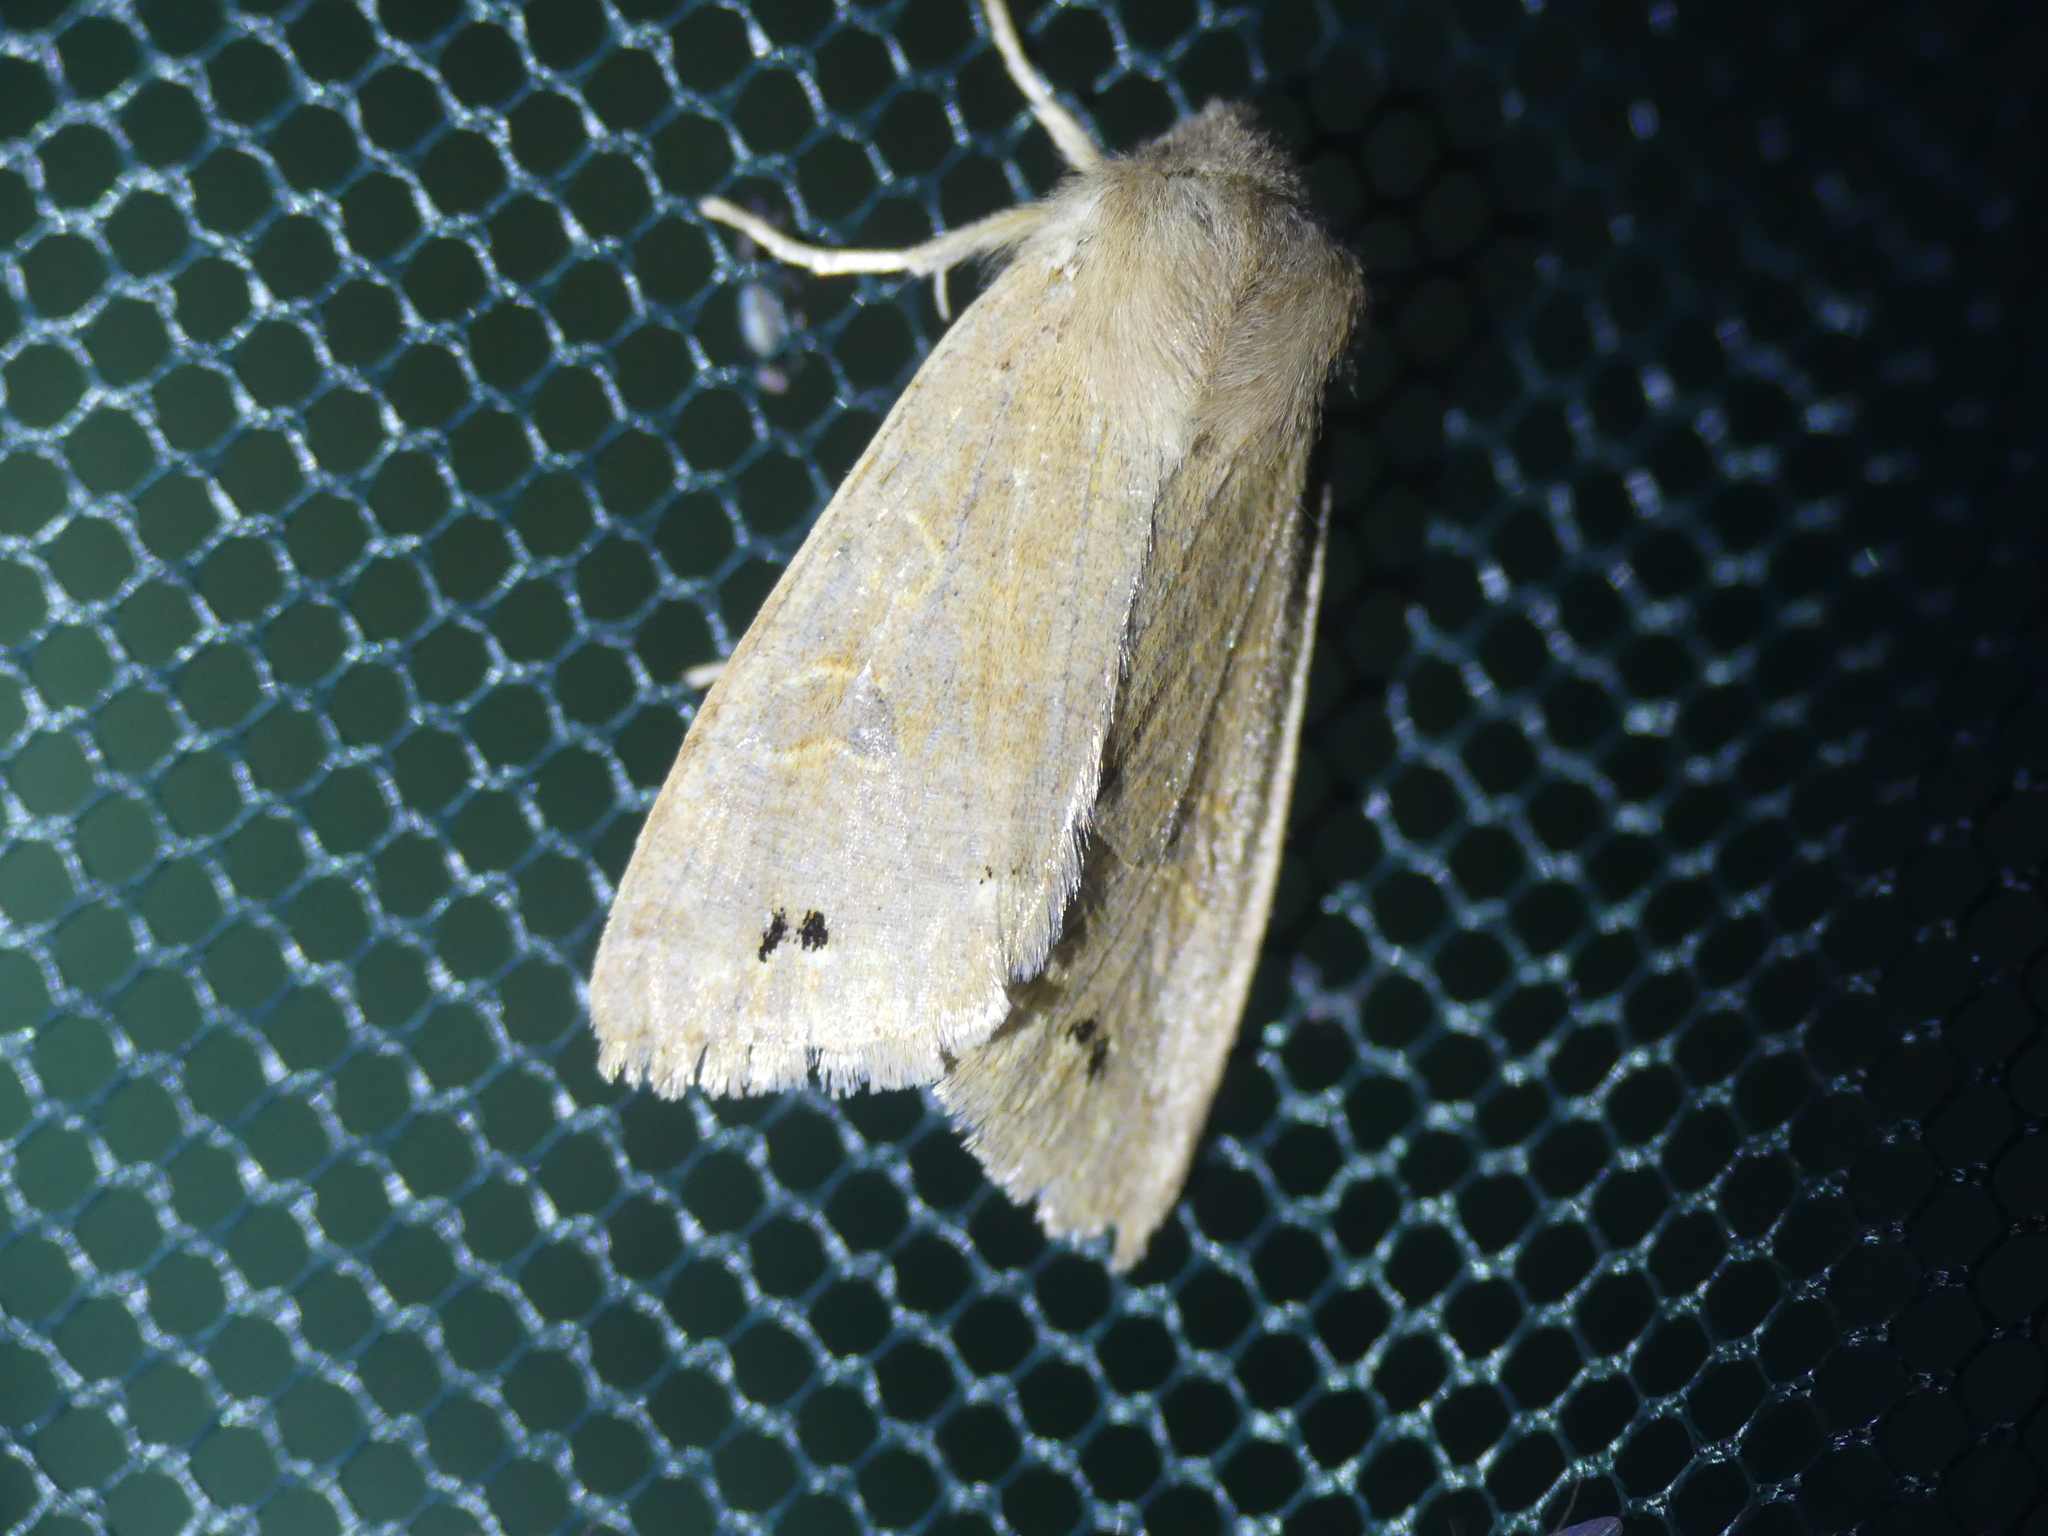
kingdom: Animalia
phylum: Arthropoda
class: Insecta
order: Lepidoptera
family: Noctuidae
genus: Anorthoa
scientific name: Anorthoa munda
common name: Twin-spotted quaker
